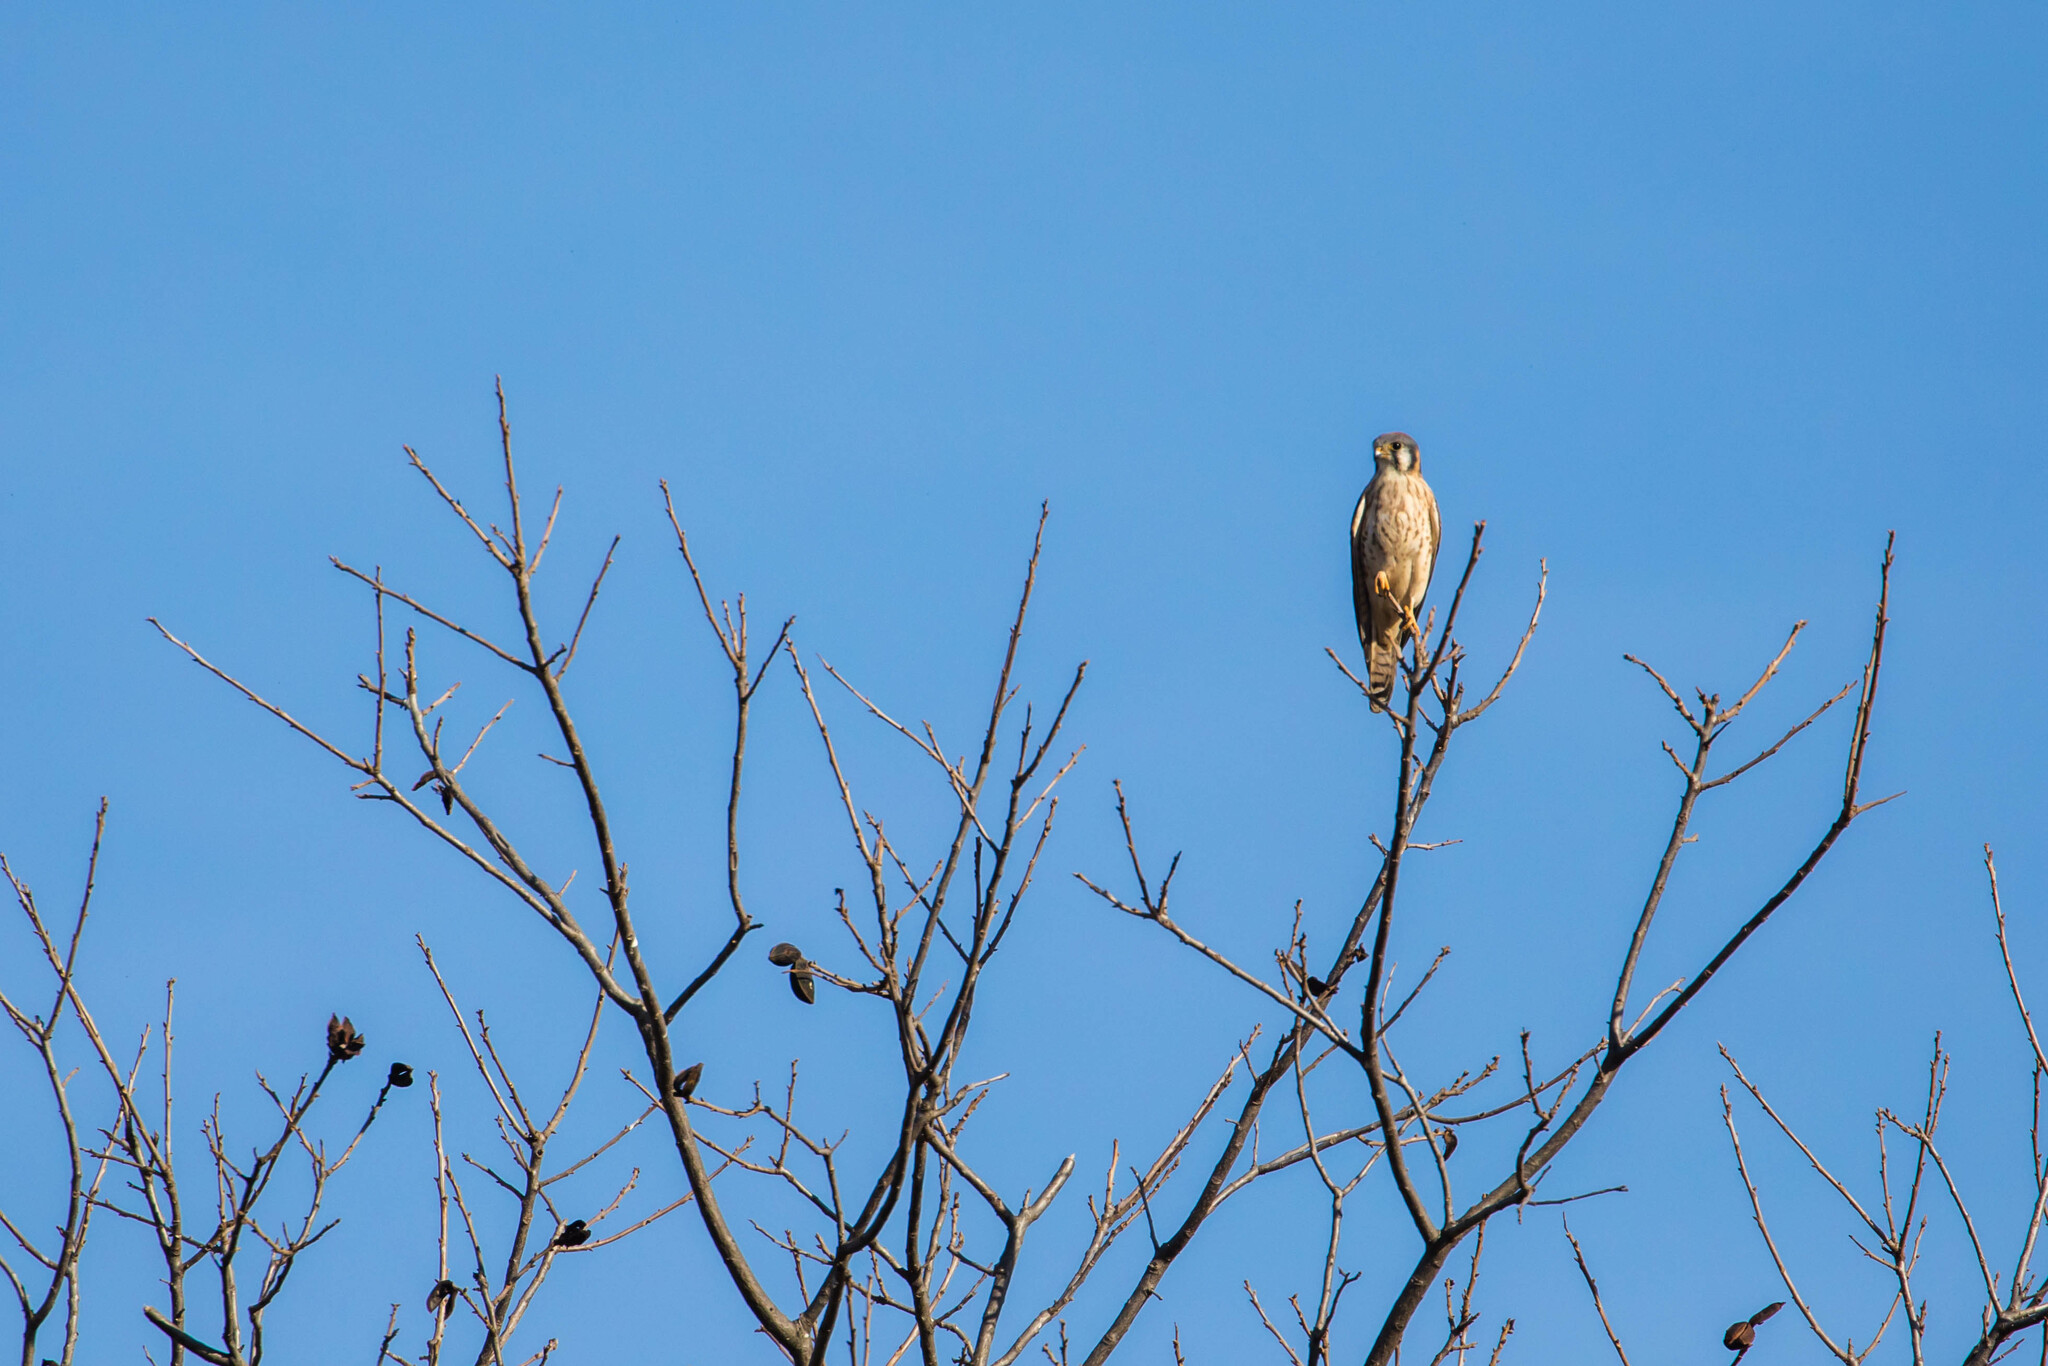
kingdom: Animalia
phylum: Chordata
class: Aves
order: Falconiformes
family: Falconidae
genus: Falco
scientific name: Falco sparverius
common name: American kestrel
